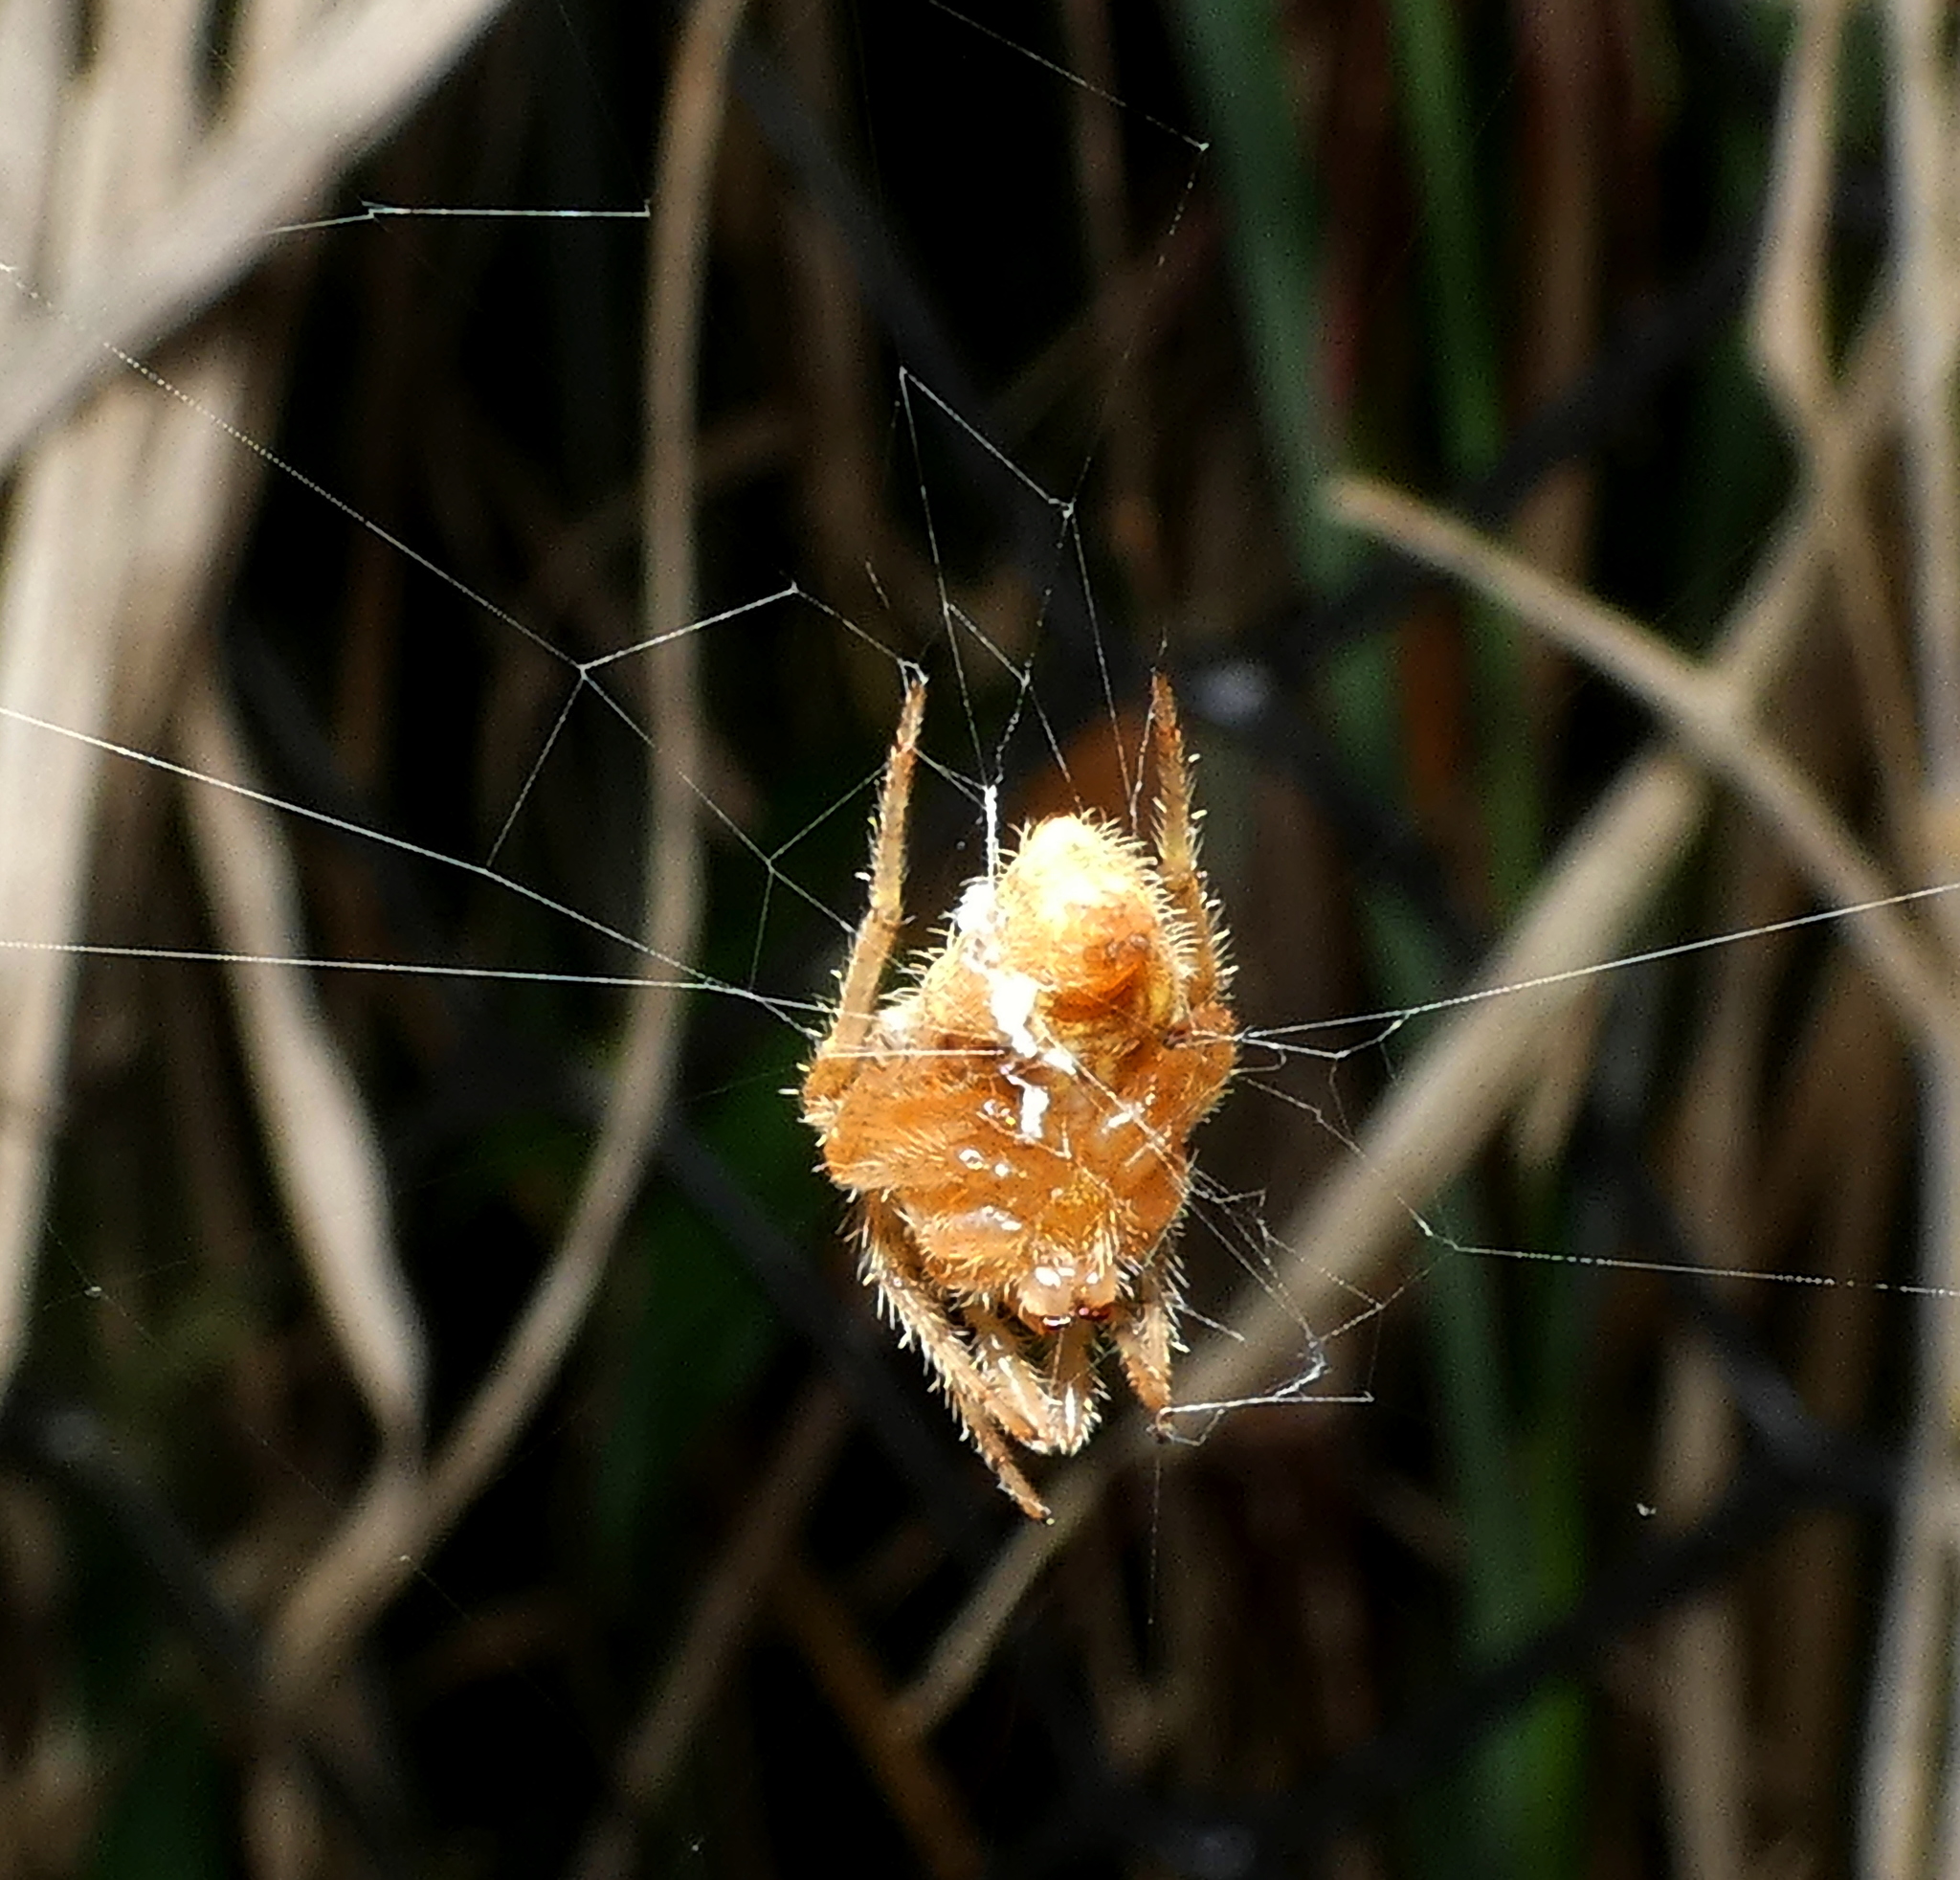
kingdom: Animalia
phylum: Arthropoda
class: Arachnida
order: Araneae
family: Araneidae
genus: Eriophora
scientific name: Eriophora edax
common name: Orb weavers
